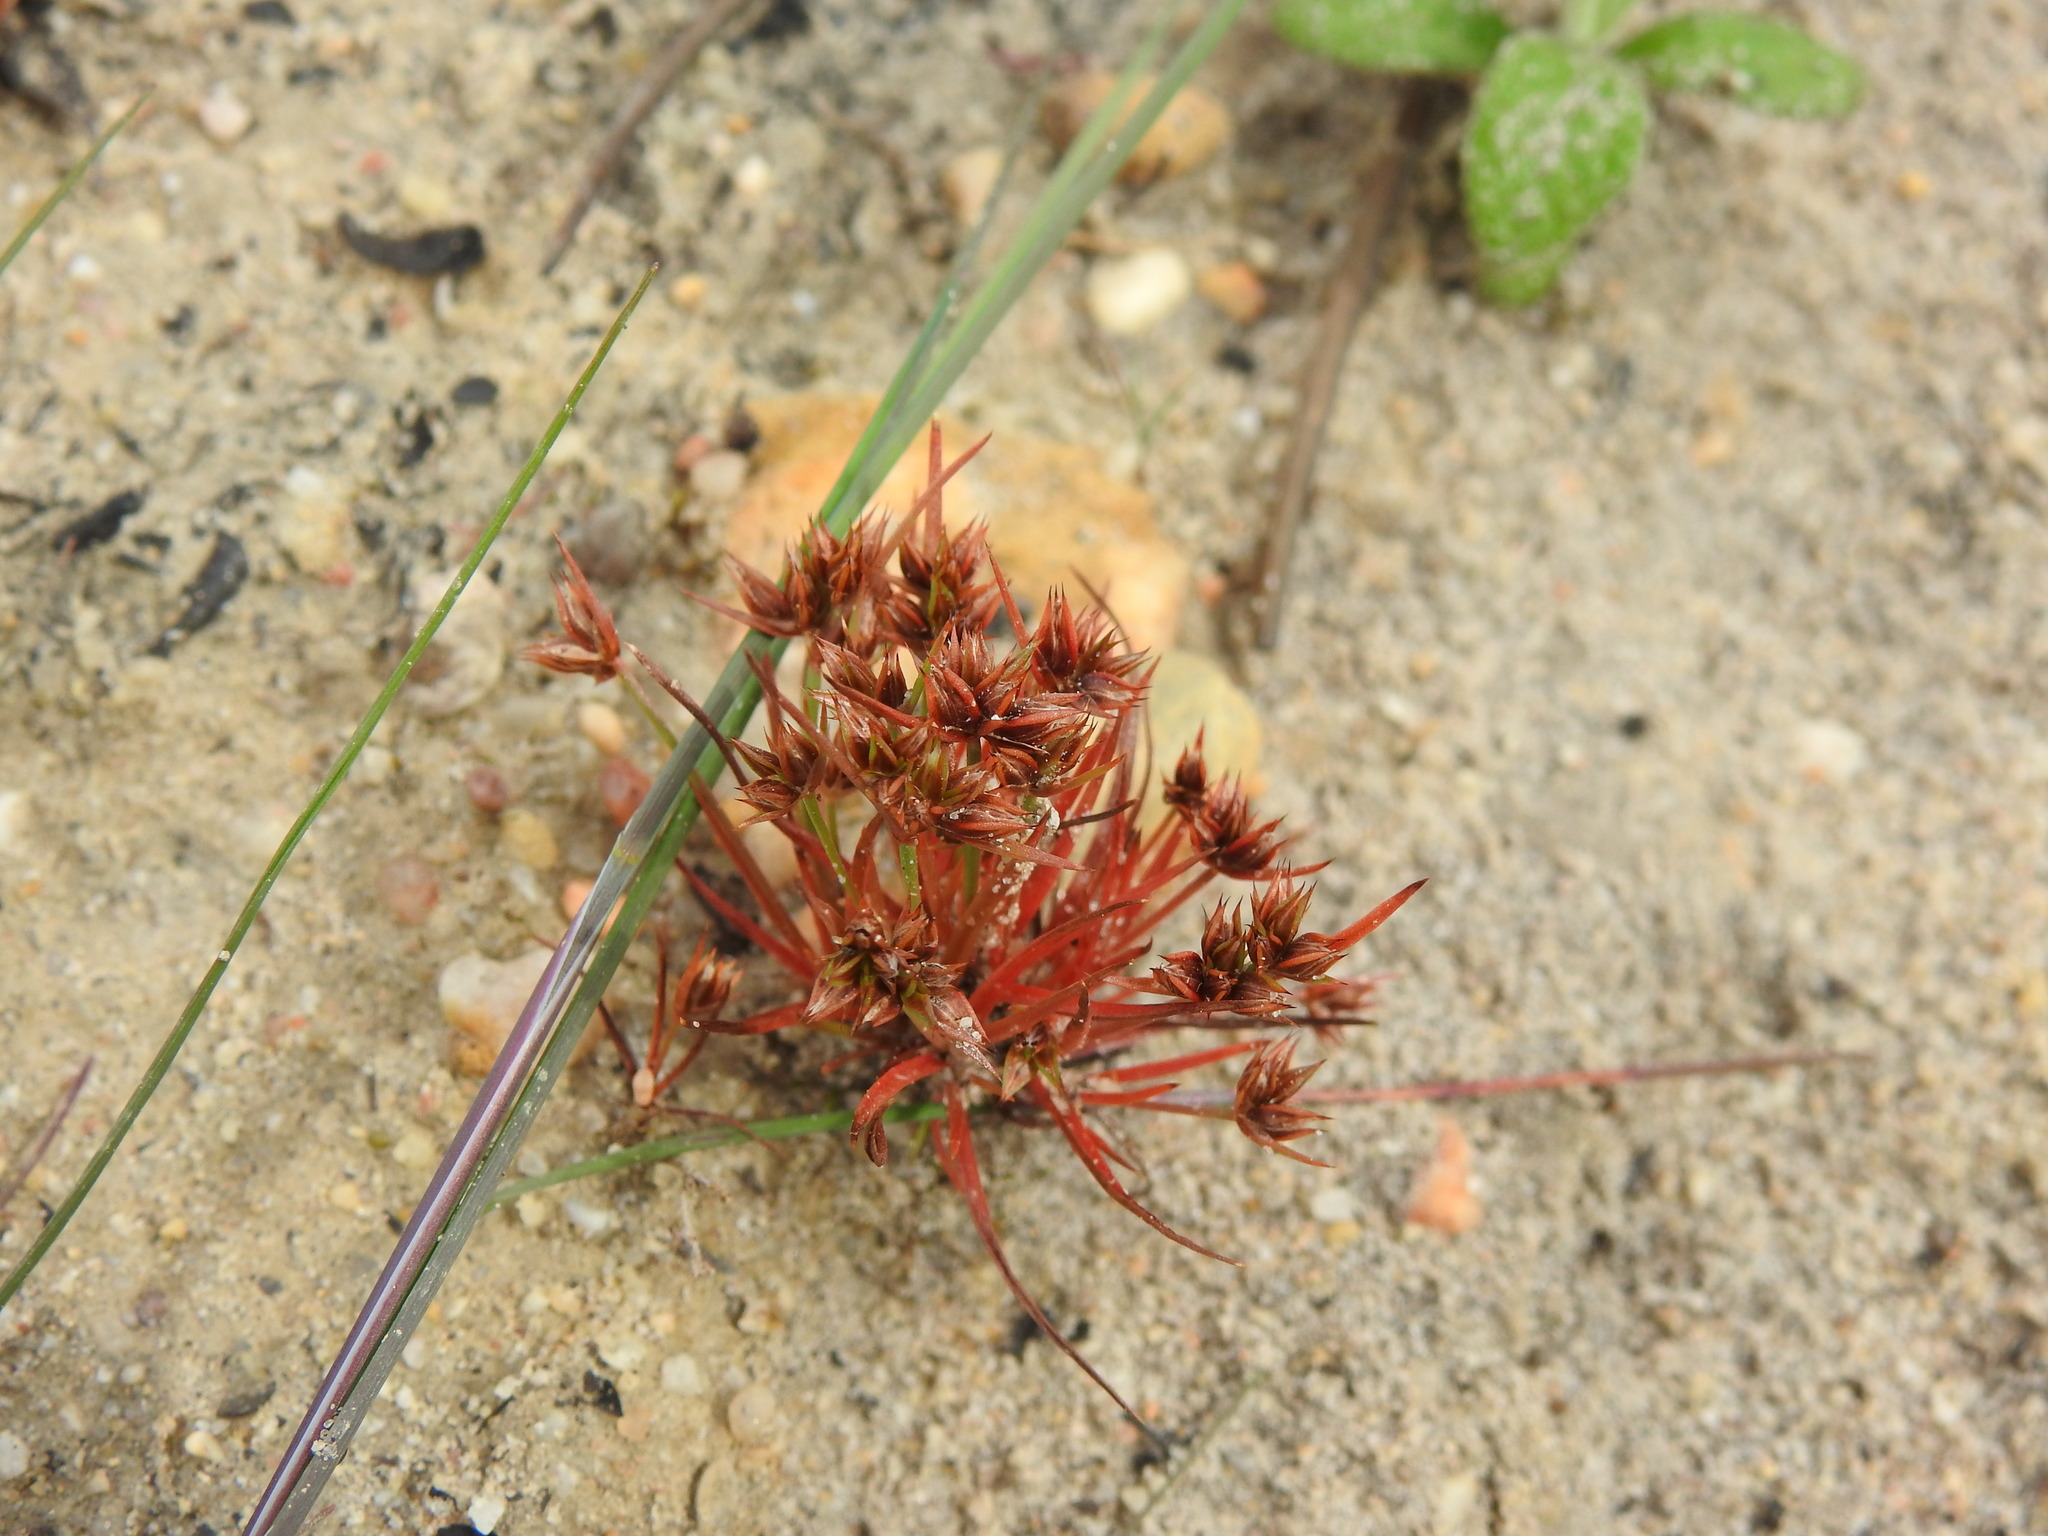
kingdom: Plantae
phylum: Tracheophyta
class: Liliopsida
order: Poales
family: Juncaceae
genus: Juncus
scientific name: Juncus capitatus
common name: Dwarf rush
